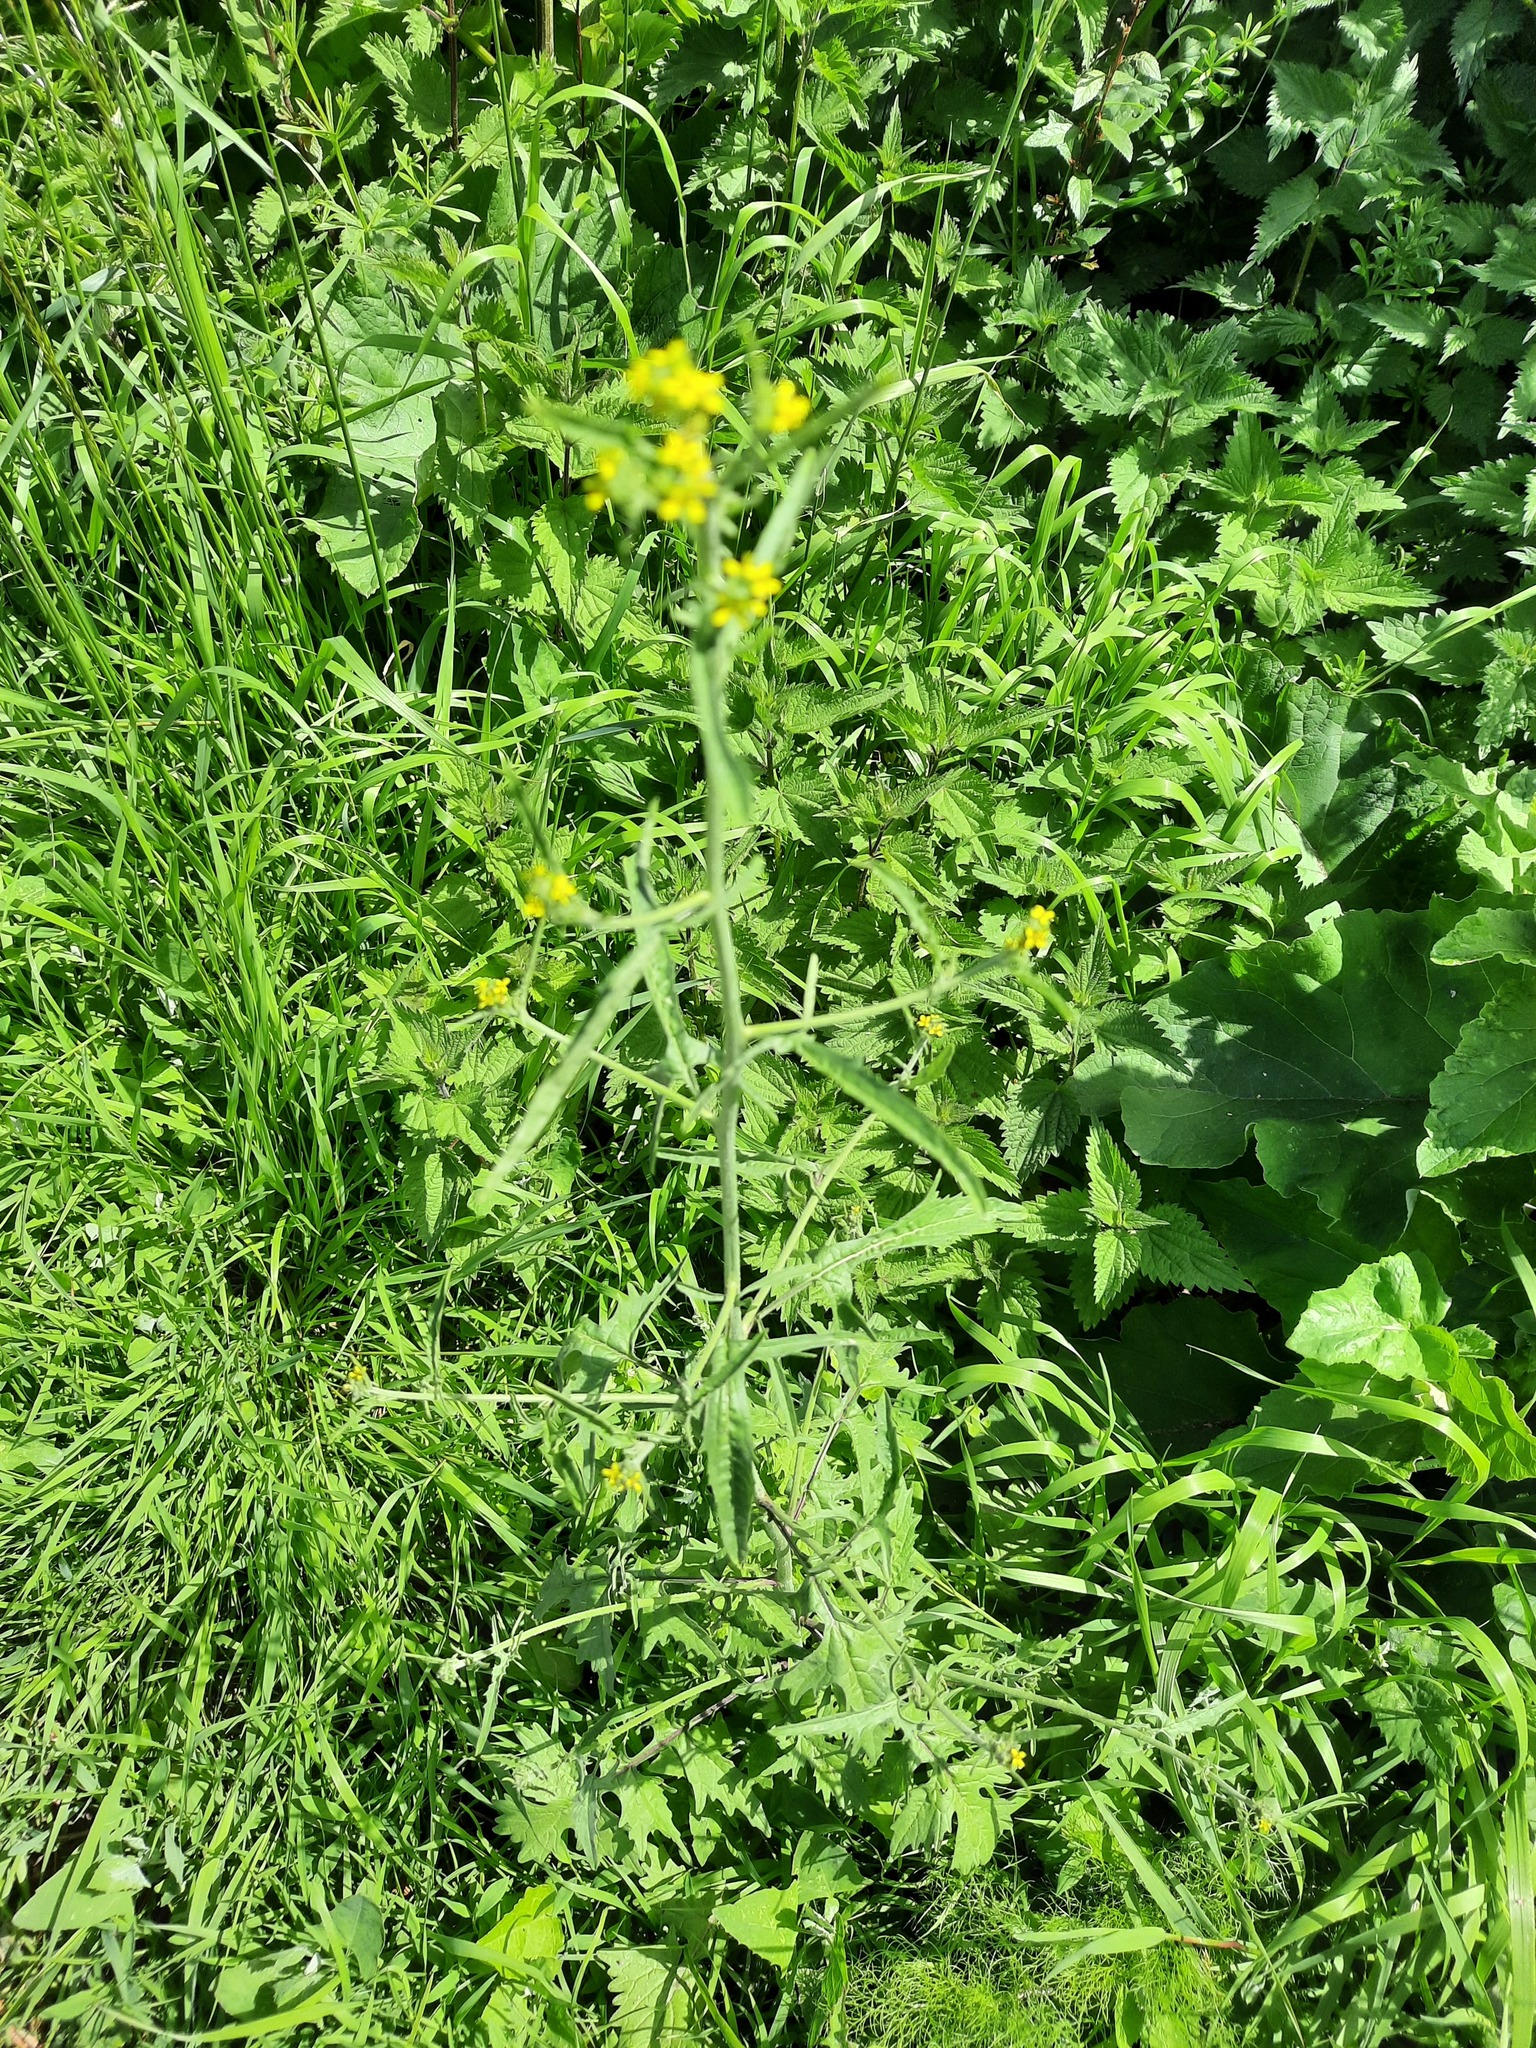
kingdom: Plantae
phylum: Tracheophyta
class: Magnoliopsida
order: Brassicales
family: Brassicaceae
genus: Sisymbrium
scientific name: Sisymbrium officinale
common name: Hedge mustard
